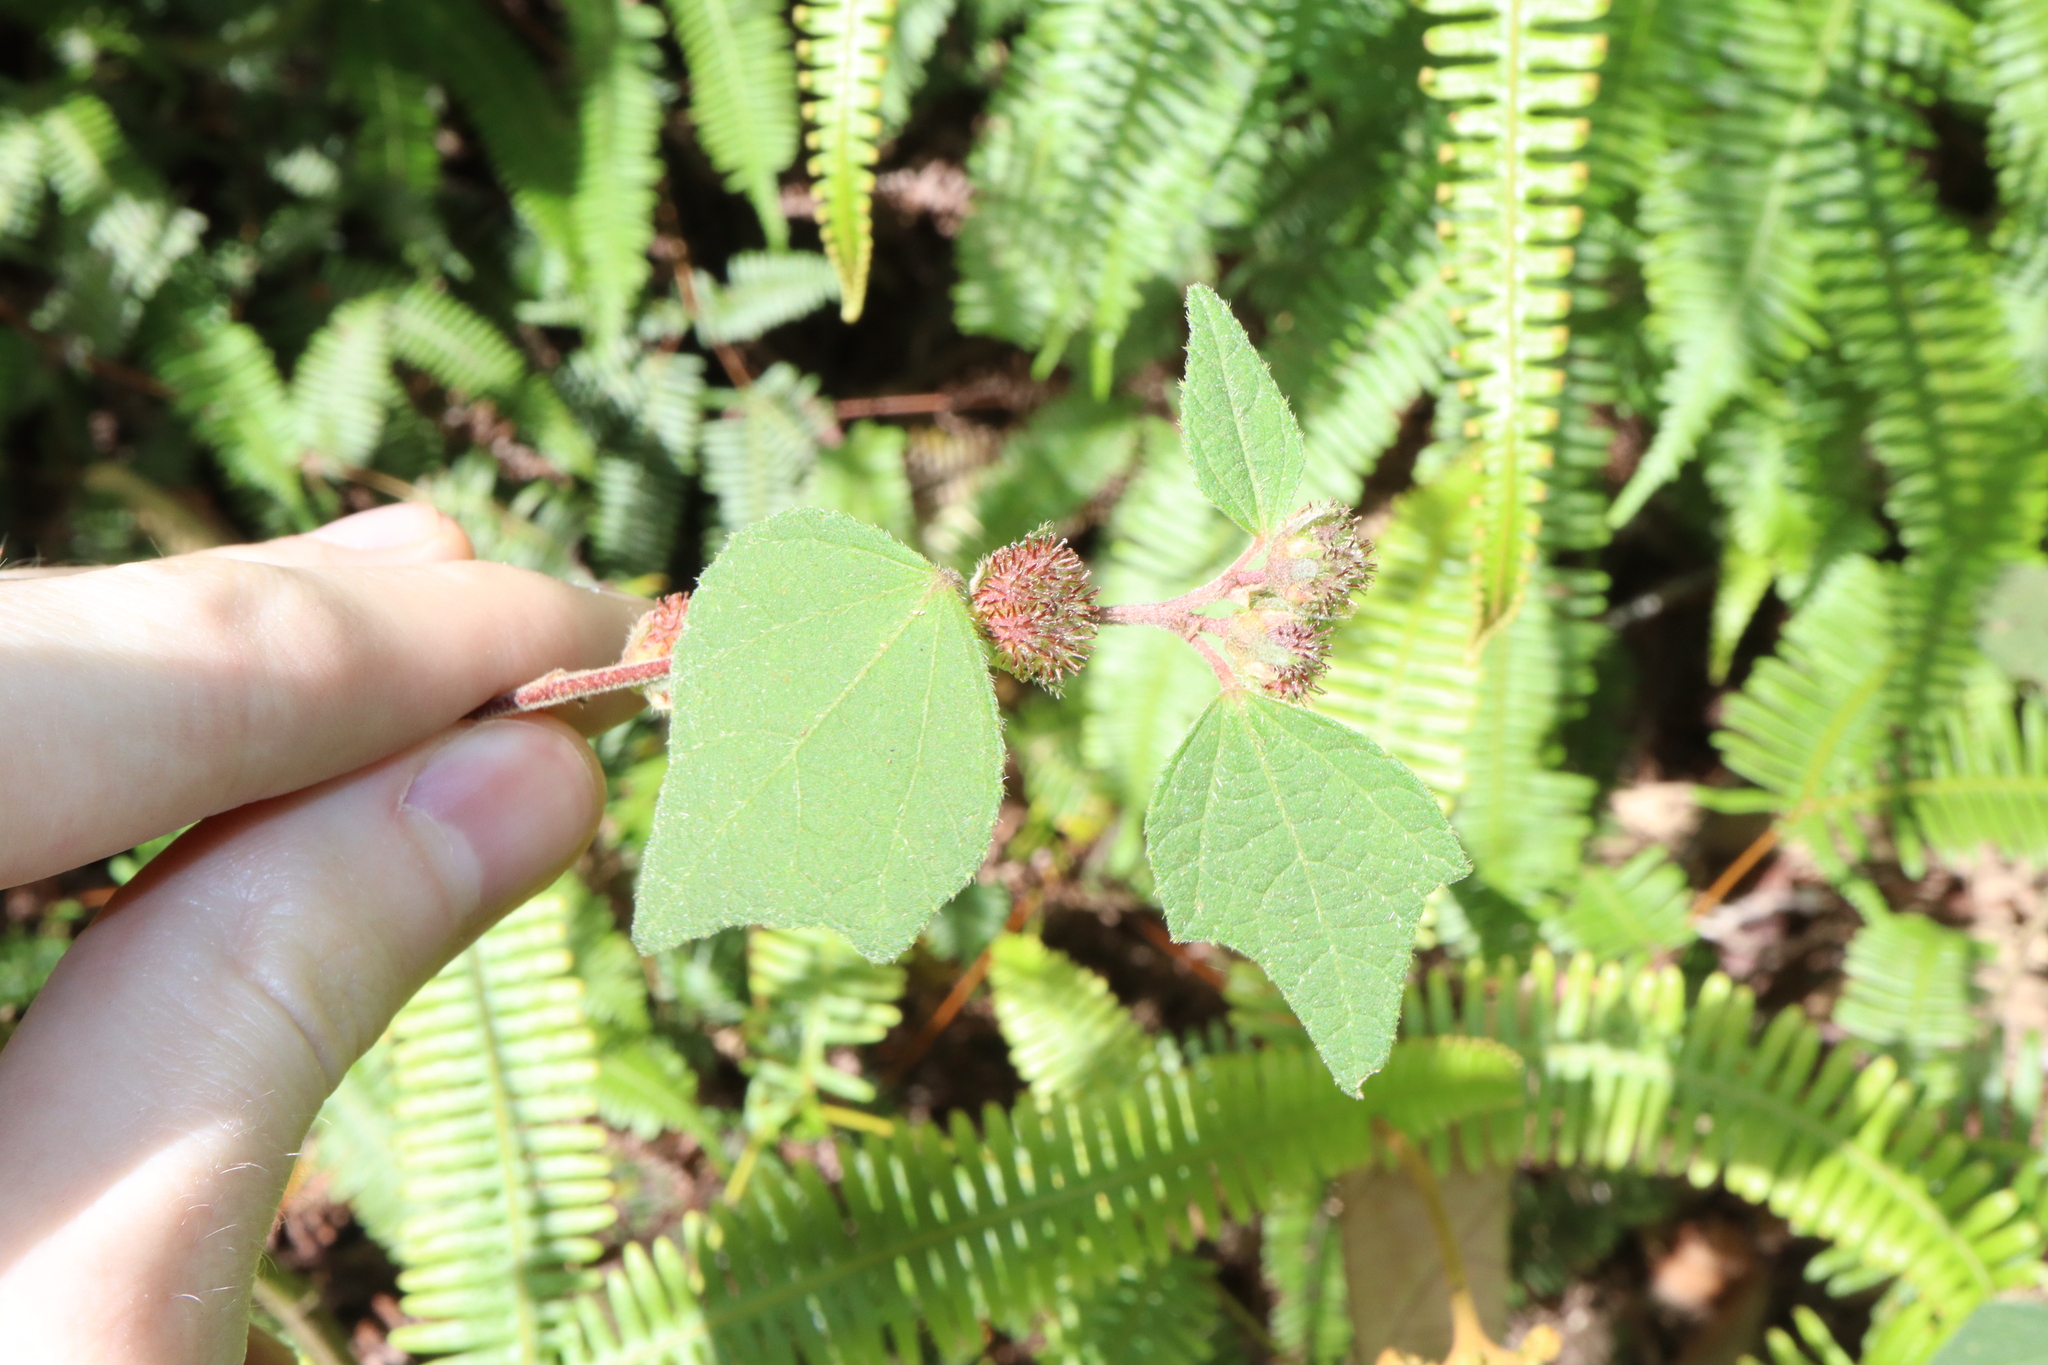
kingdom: Plantae
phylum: Tracheophyta
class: Magnoliopsida
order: Malvales
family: Malvaceae
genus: Urena
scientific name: Urena lobata
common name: Caesarweed
